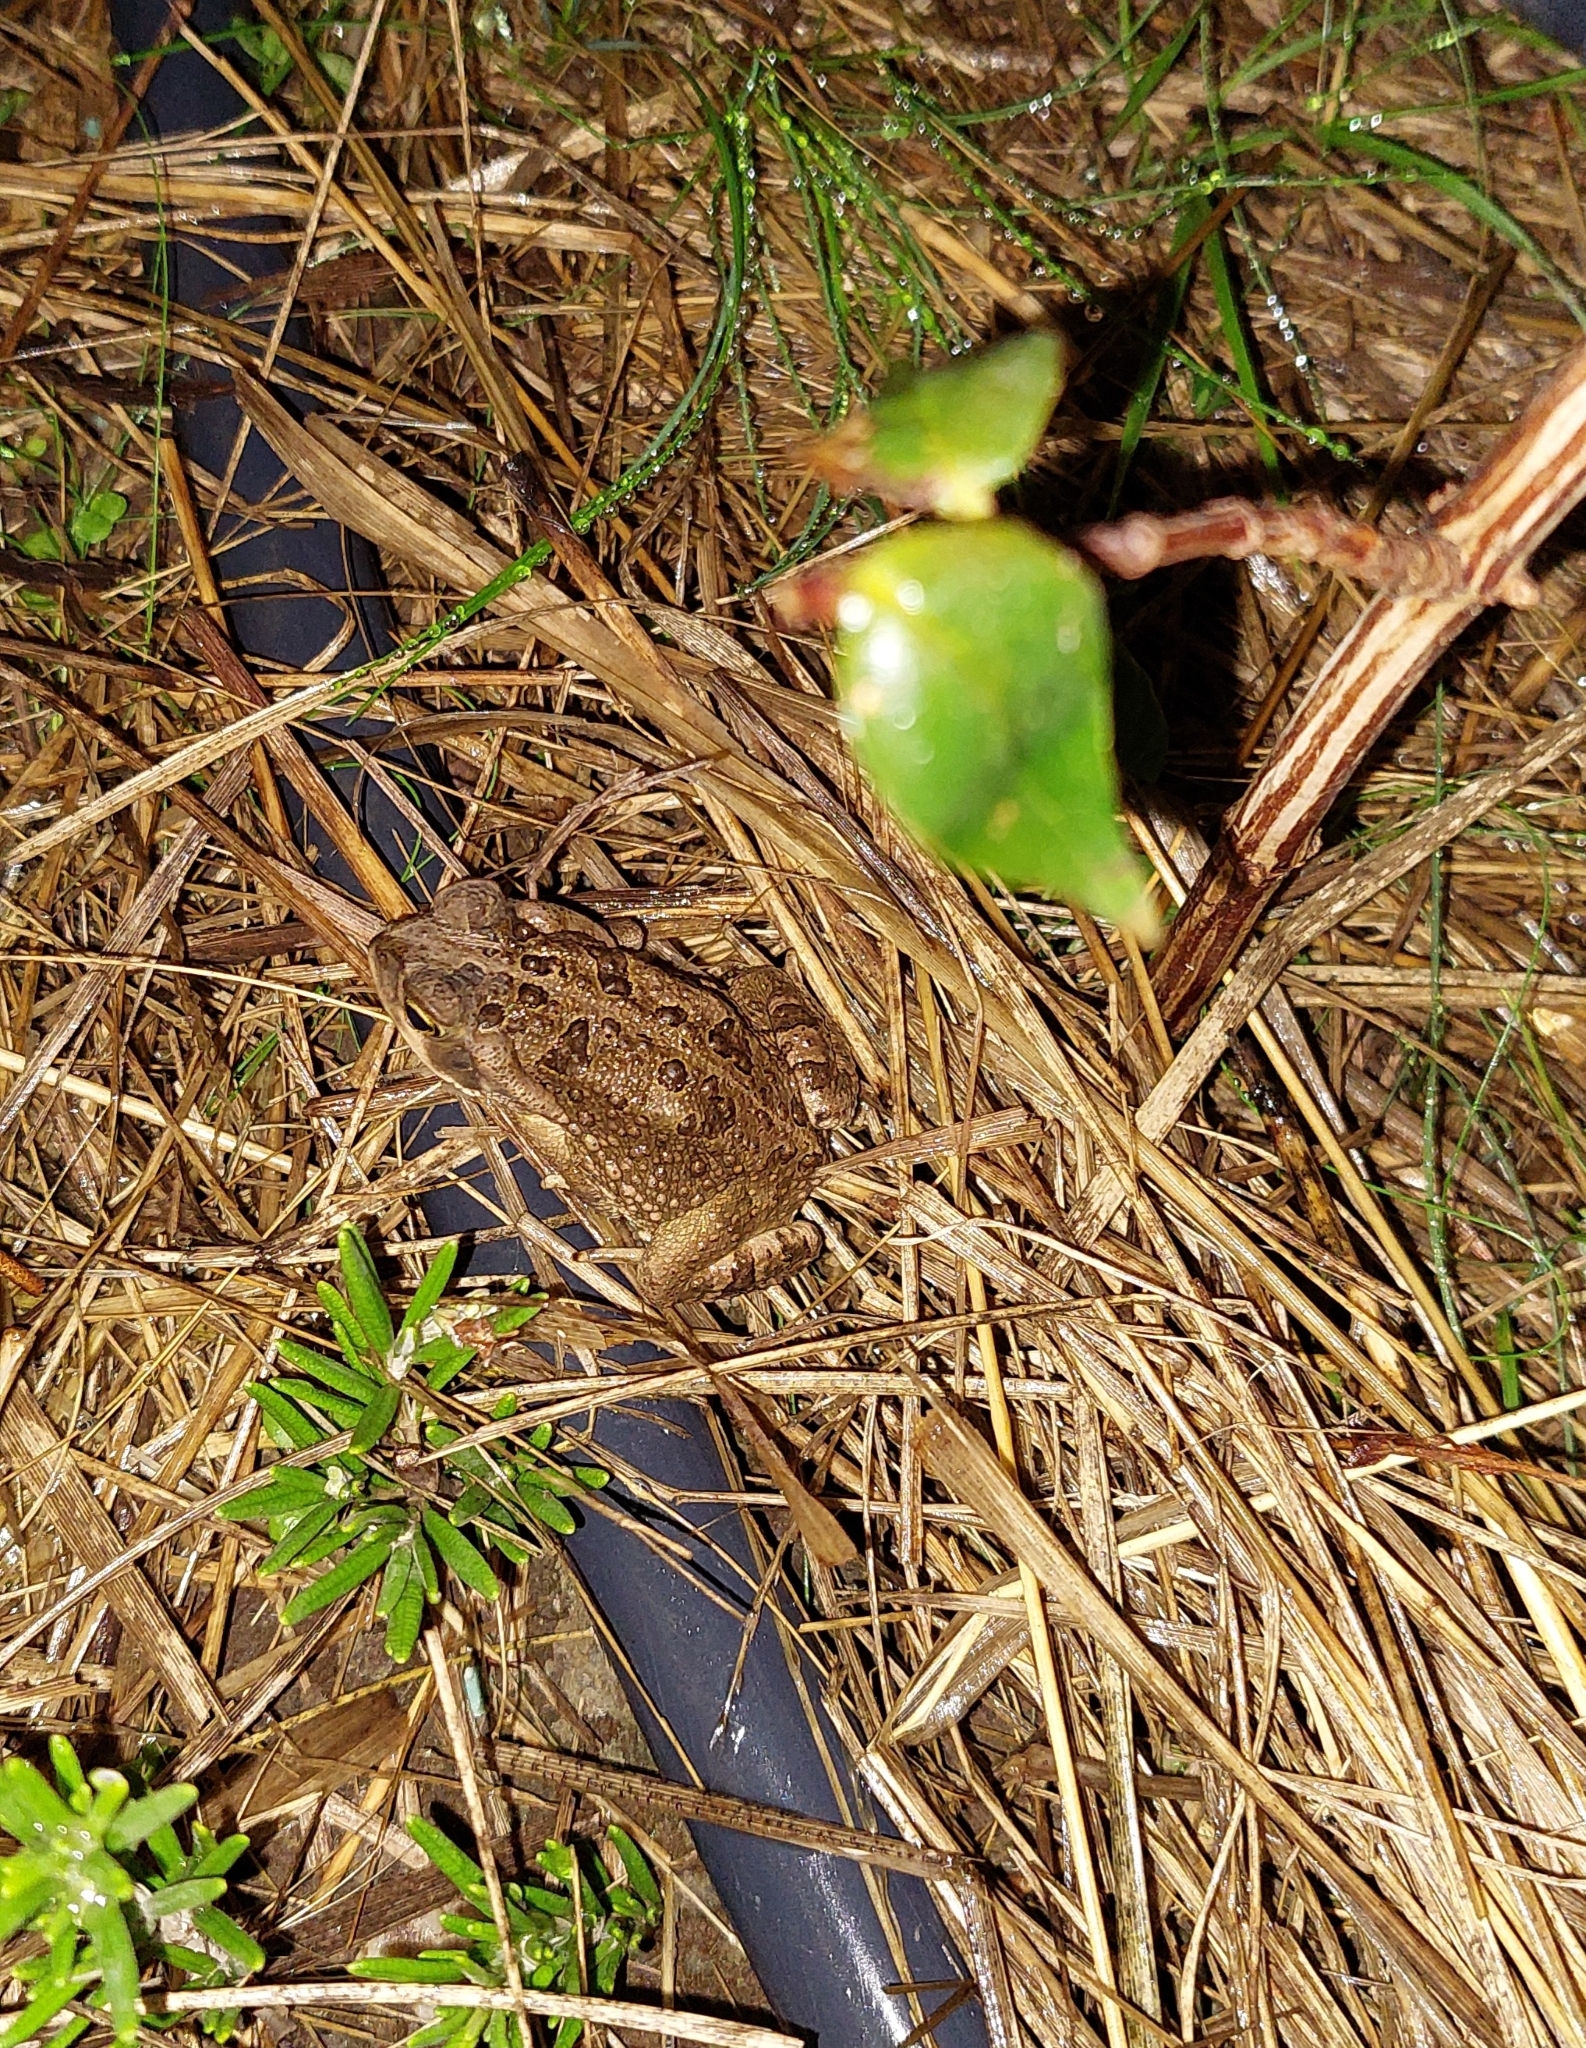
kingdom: Animalia
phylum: Chordata
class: Amphibia
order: Anura
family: Bufonidae
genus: Rhinella
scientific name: Rhinella arenarum
